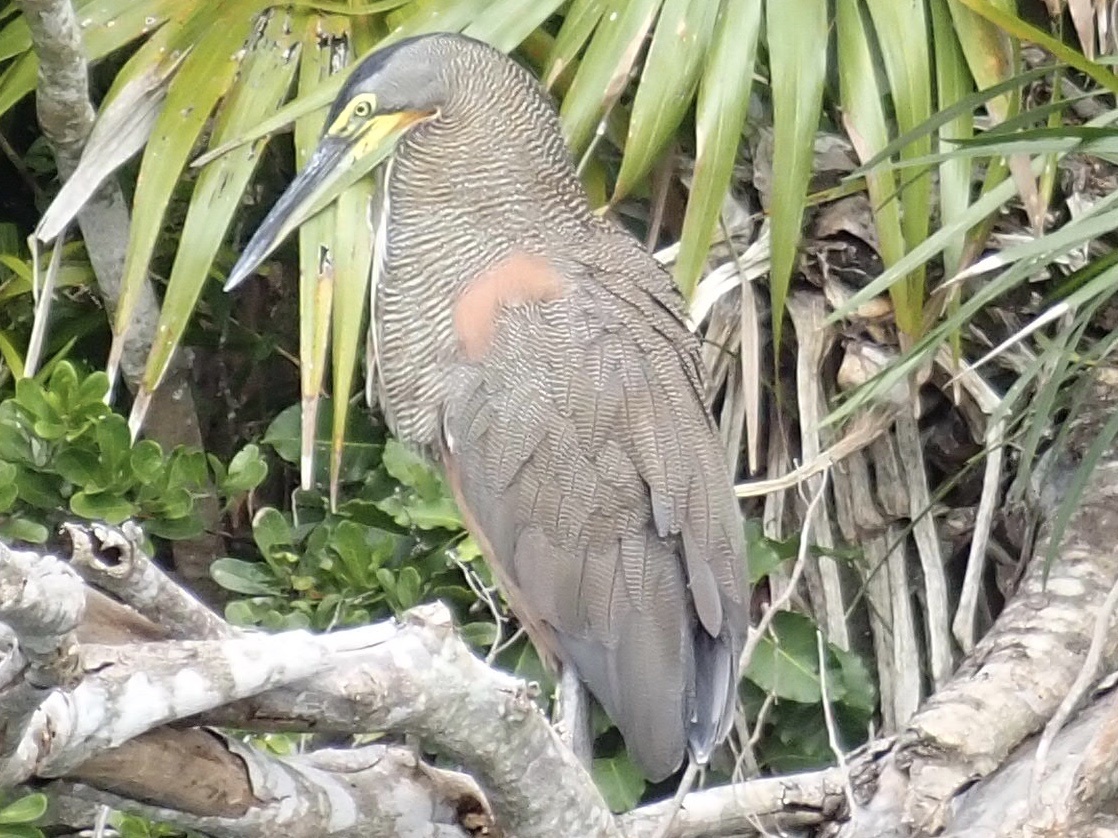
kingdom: Animalia
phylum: Chordata
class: Aves
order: Pelecaniformes
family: Ardeidae
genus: Tigrisoma
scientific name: Tigrisoma mexicanum
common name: Bare-throated tiger-heron
